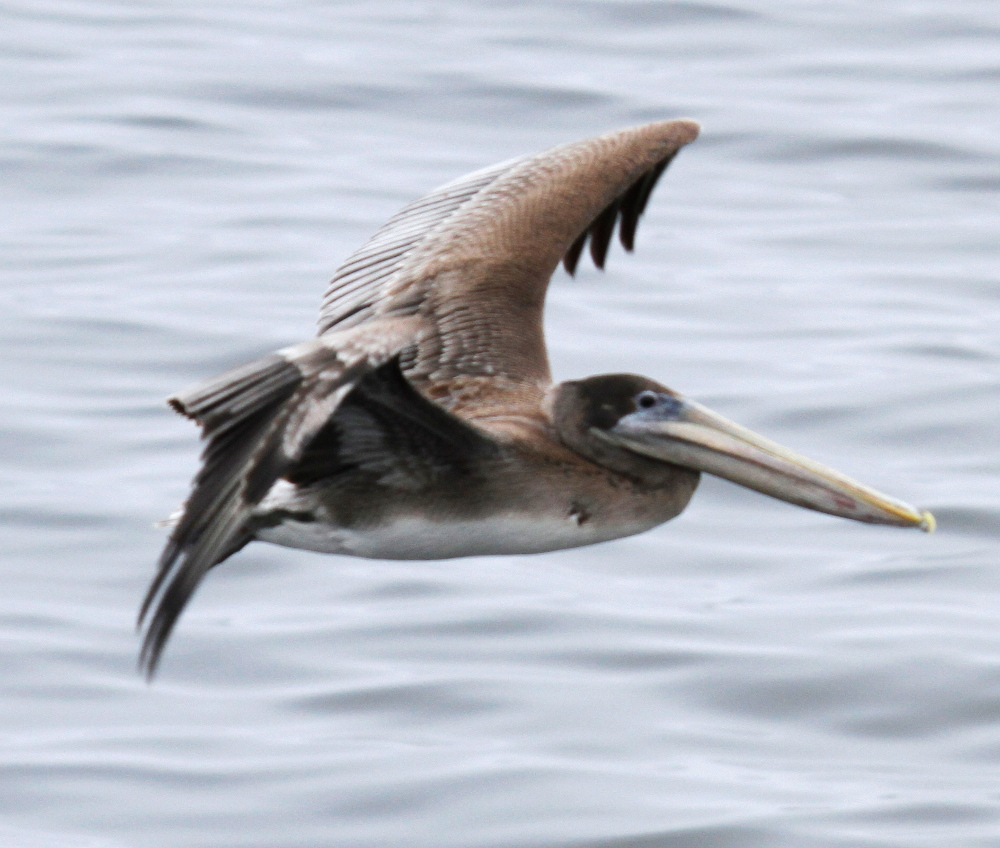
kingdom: Animalia
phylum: Chordata
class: Aves
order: Pelecaniformes
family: Pelecanidae
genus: Pelecanus
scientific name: Pelecanus occidentalis
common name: Brown pelican
